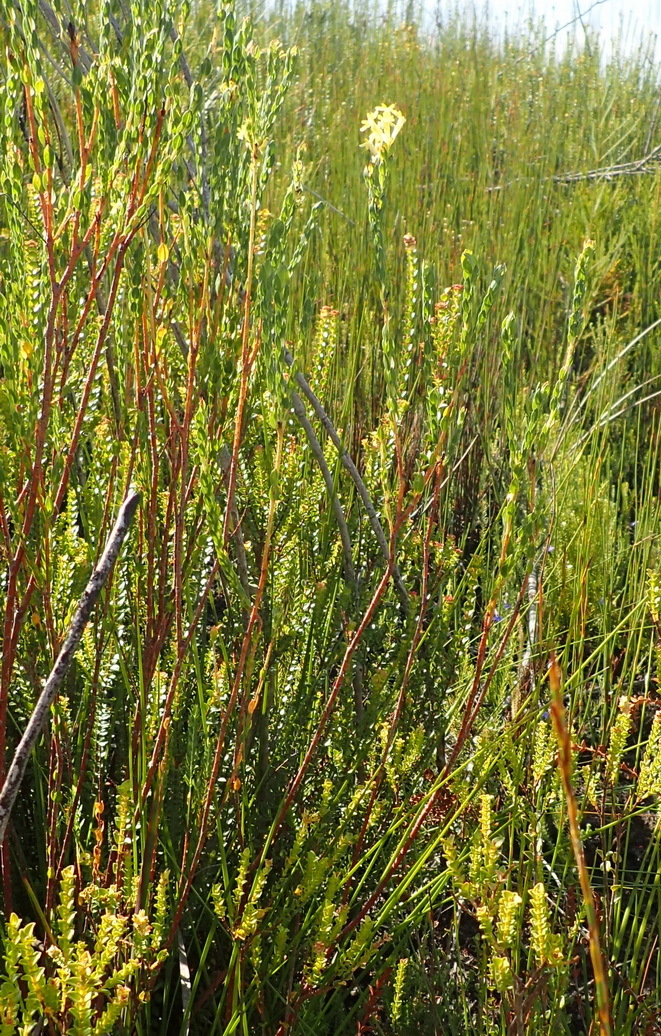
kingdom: Plantae
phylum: Tracheophyta
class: Magnoliopsida
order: Malvales
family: Thymelaeaceae
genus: Gnidia
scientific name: Gnidia oppositifolia
